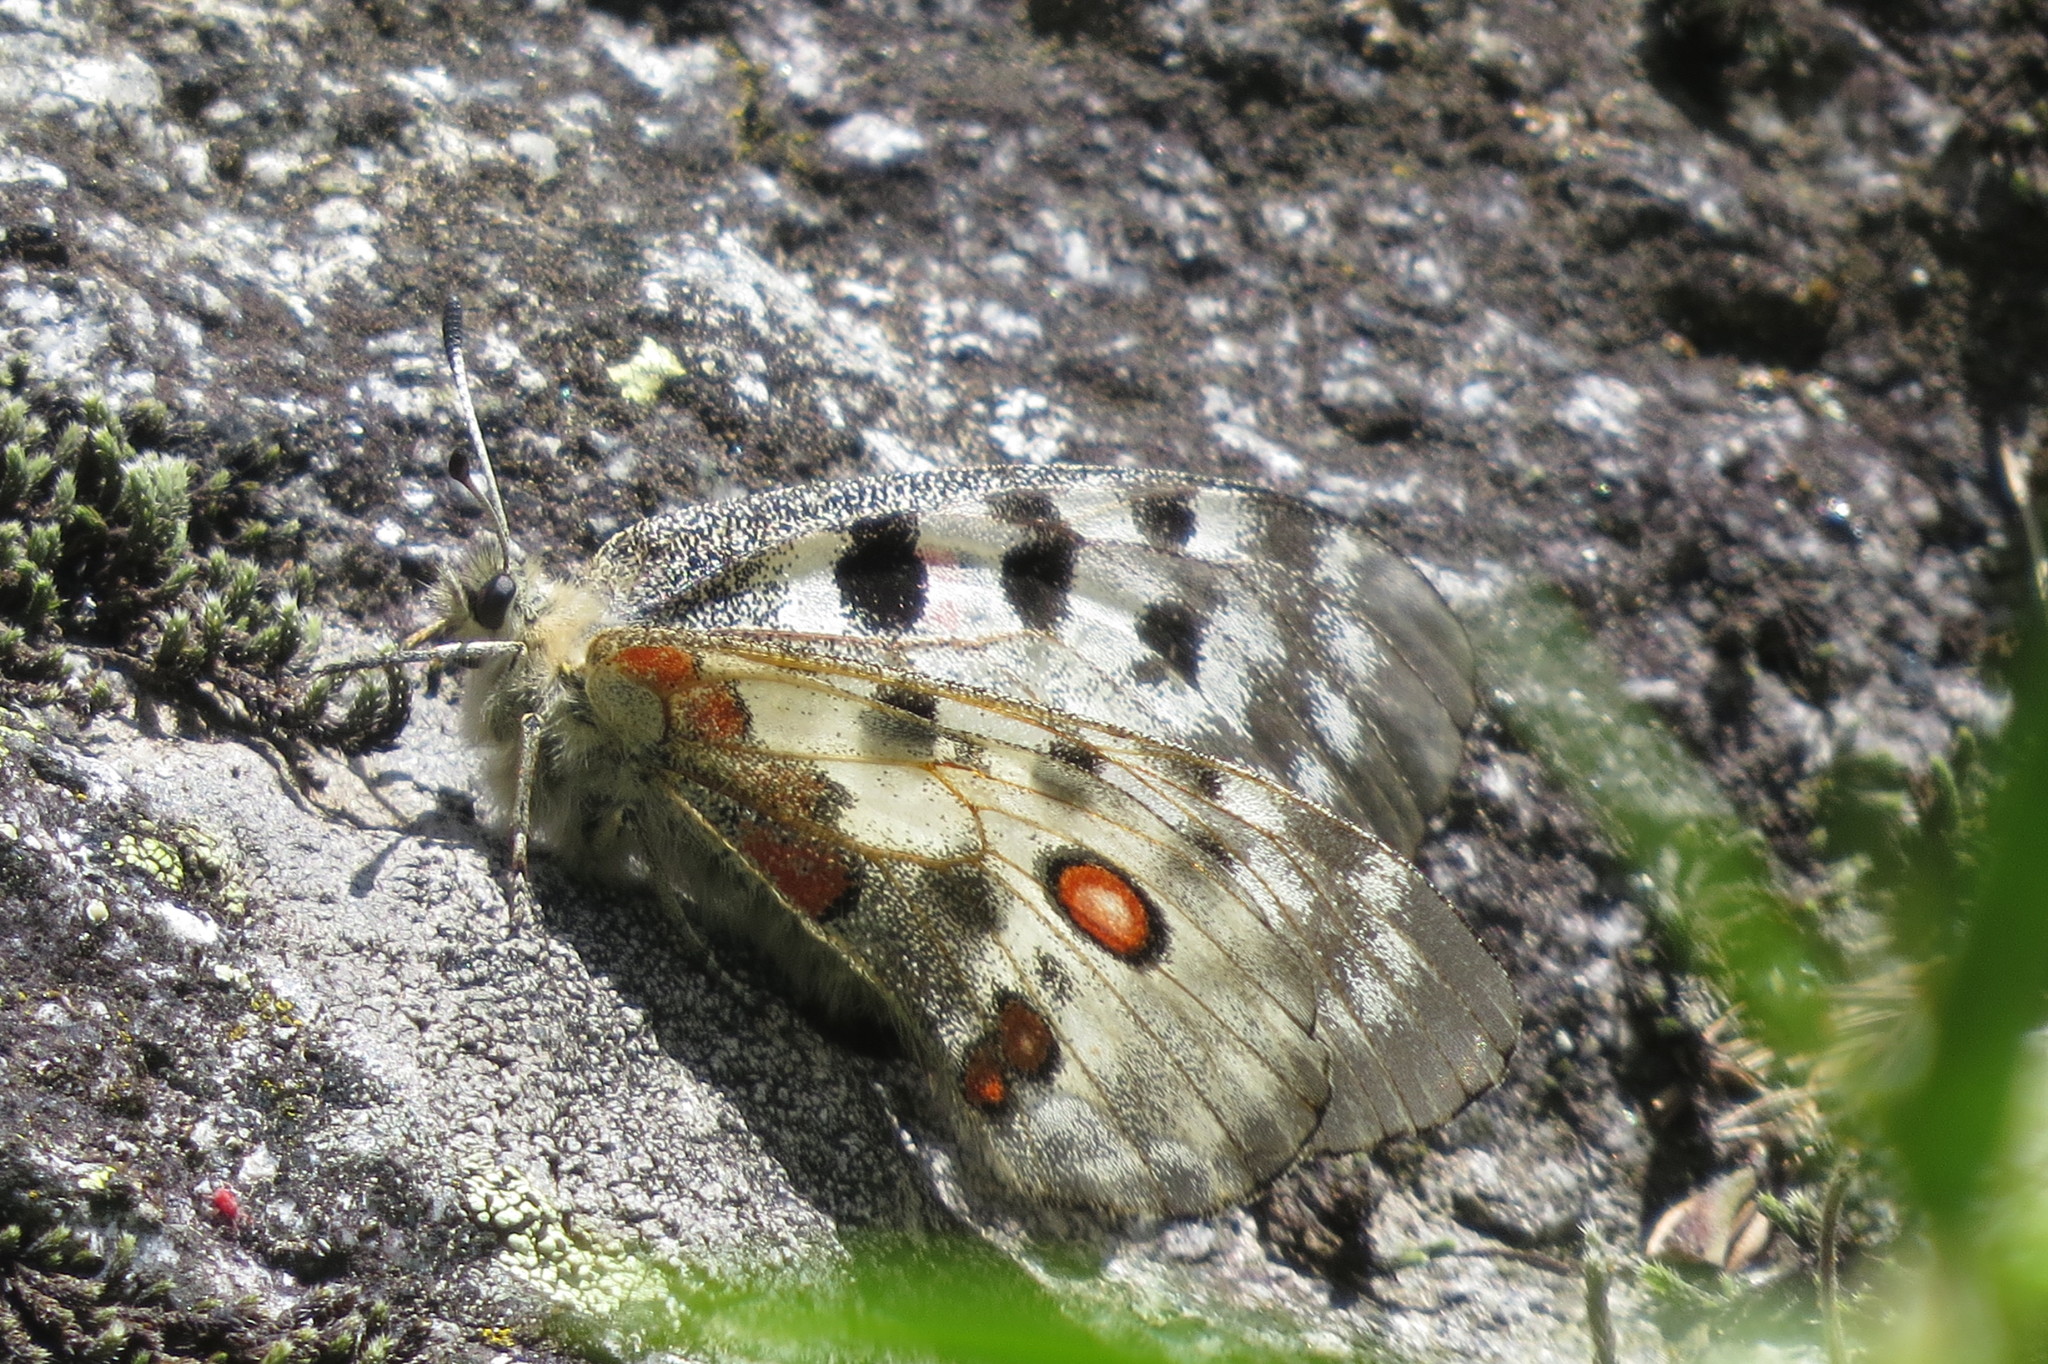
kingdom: Animalia
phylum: Arthropoda
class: Insecta
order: Lepidoptera
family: Papilionidae
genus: Parnassius
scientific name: Parnassius apollo
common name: Apollo
